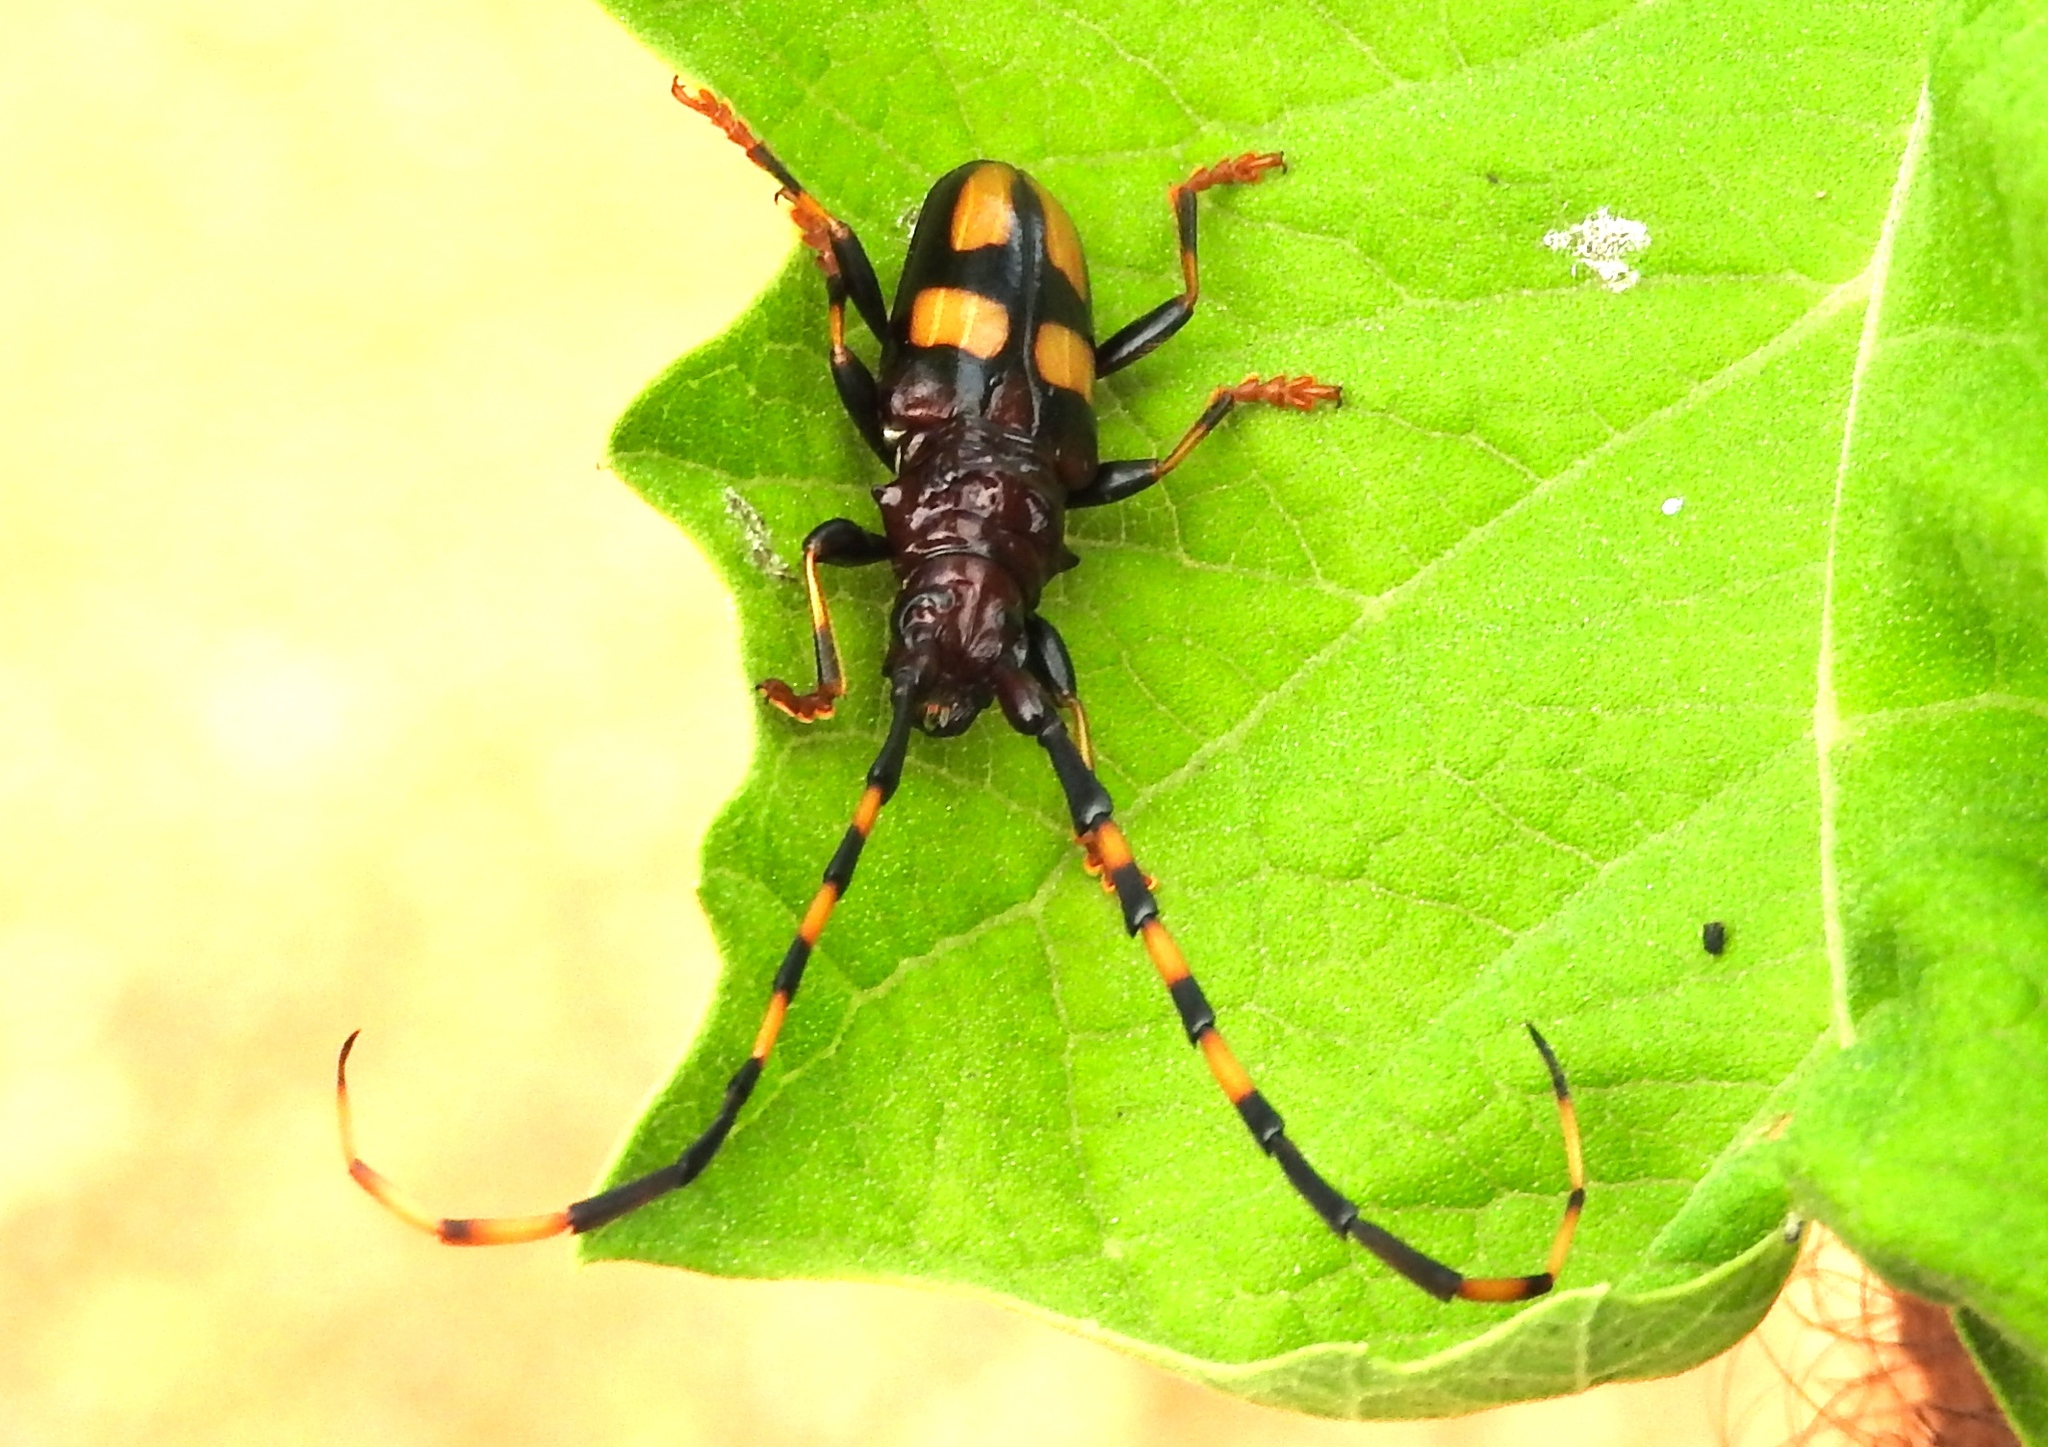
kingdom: Animalia
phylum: Arthropoda
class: Insecta
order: Coleoptera
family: Cerambycidae
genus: Trachyderes
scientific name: Trachyderes mandibularis
